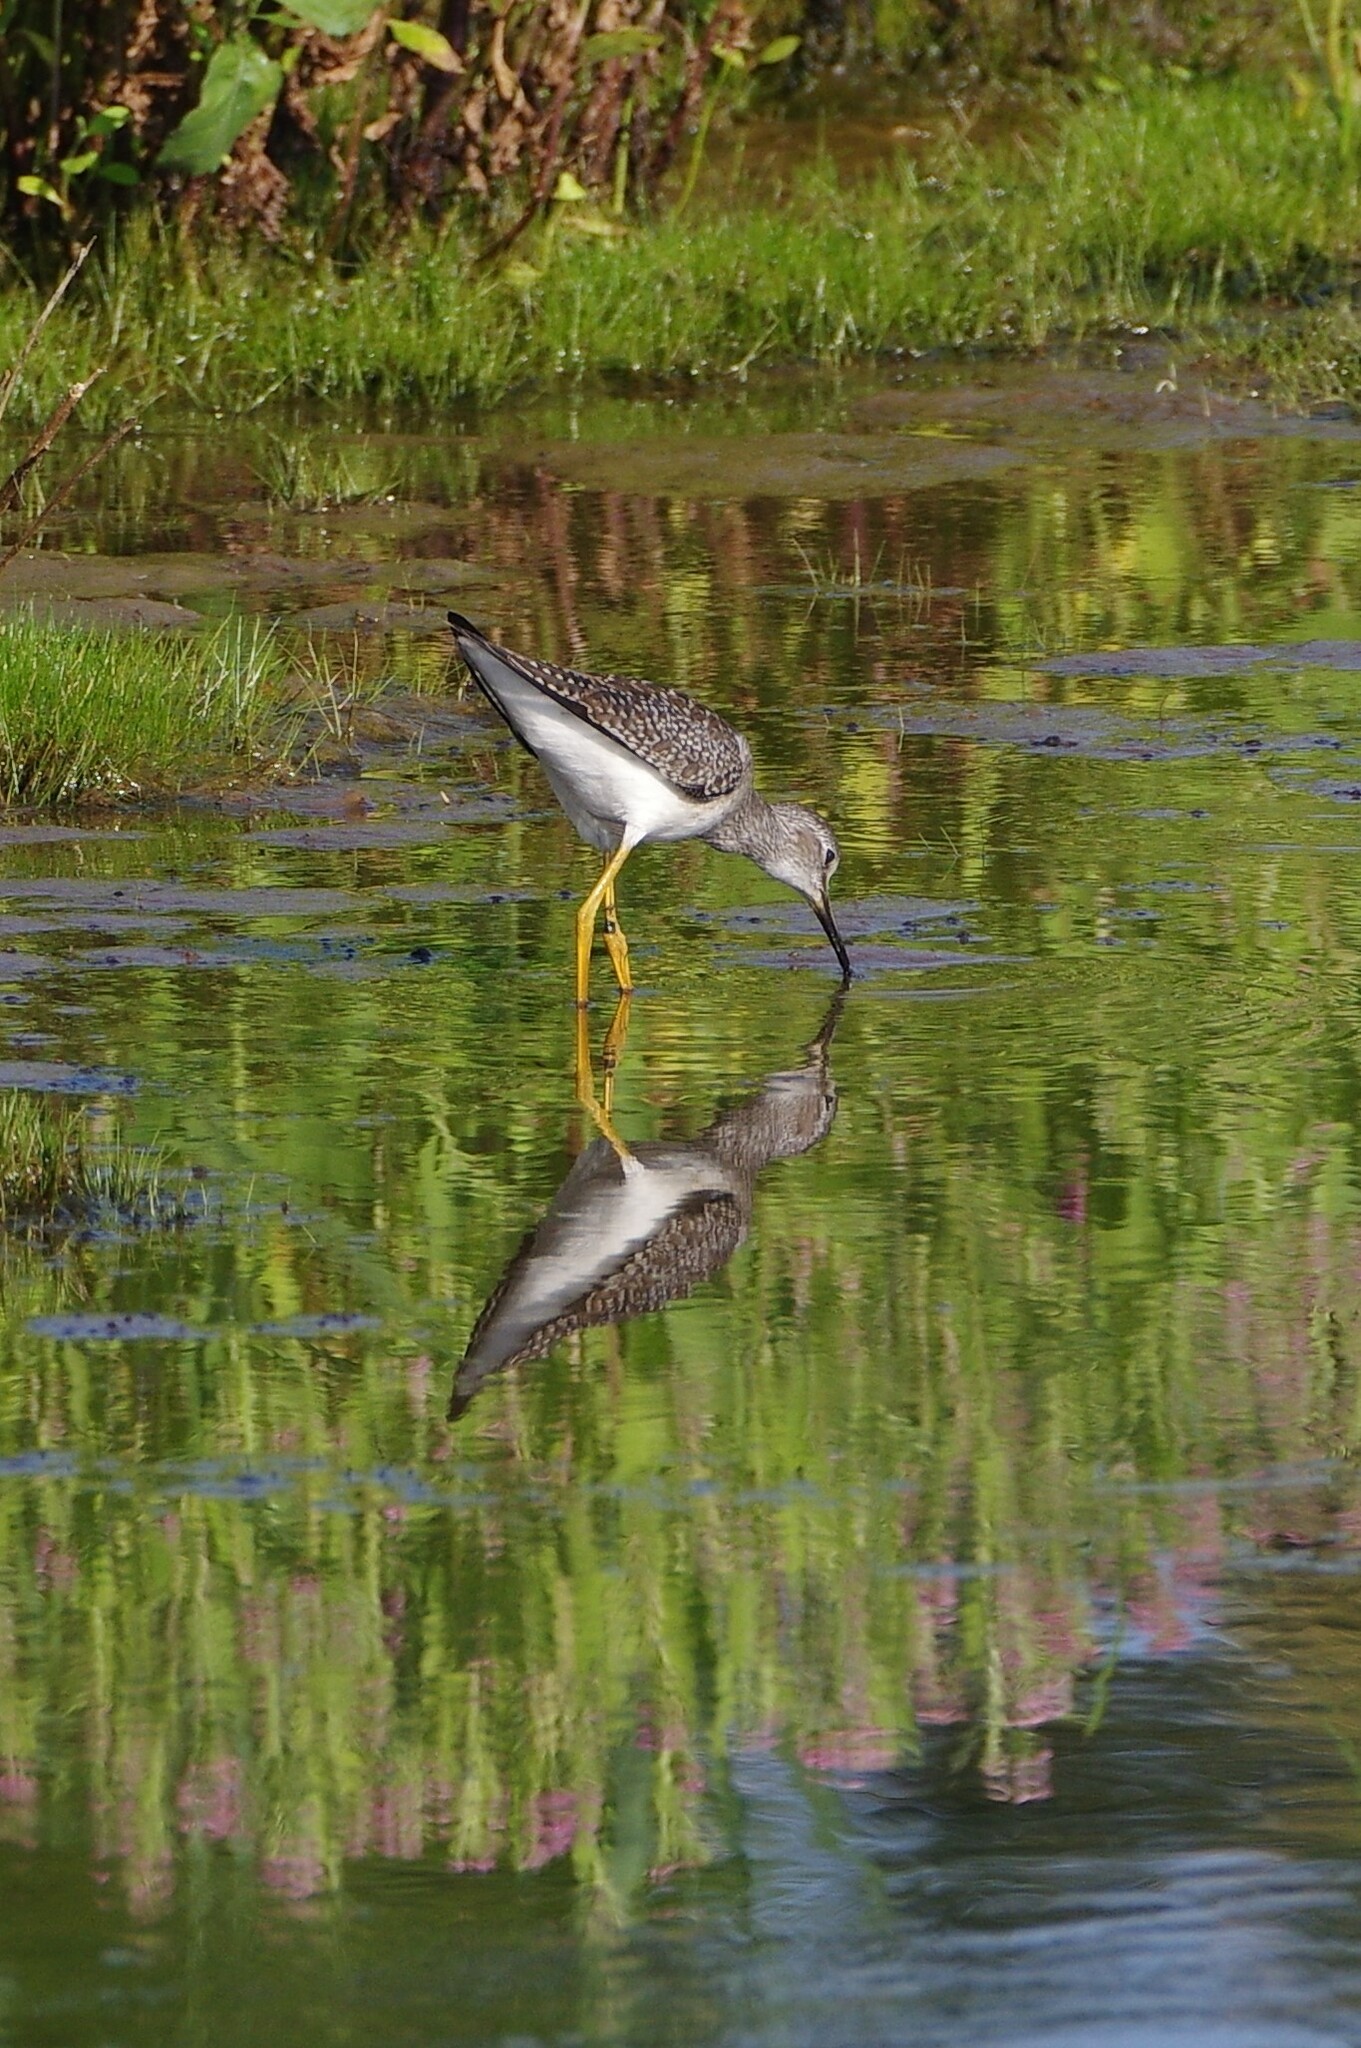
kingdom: Animalia
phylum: Chordata
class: Aves
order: Charadriiformes
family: Scolopacidae
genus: Tringa
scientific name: Tringa flavipes
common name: Lesser yellowlegs
